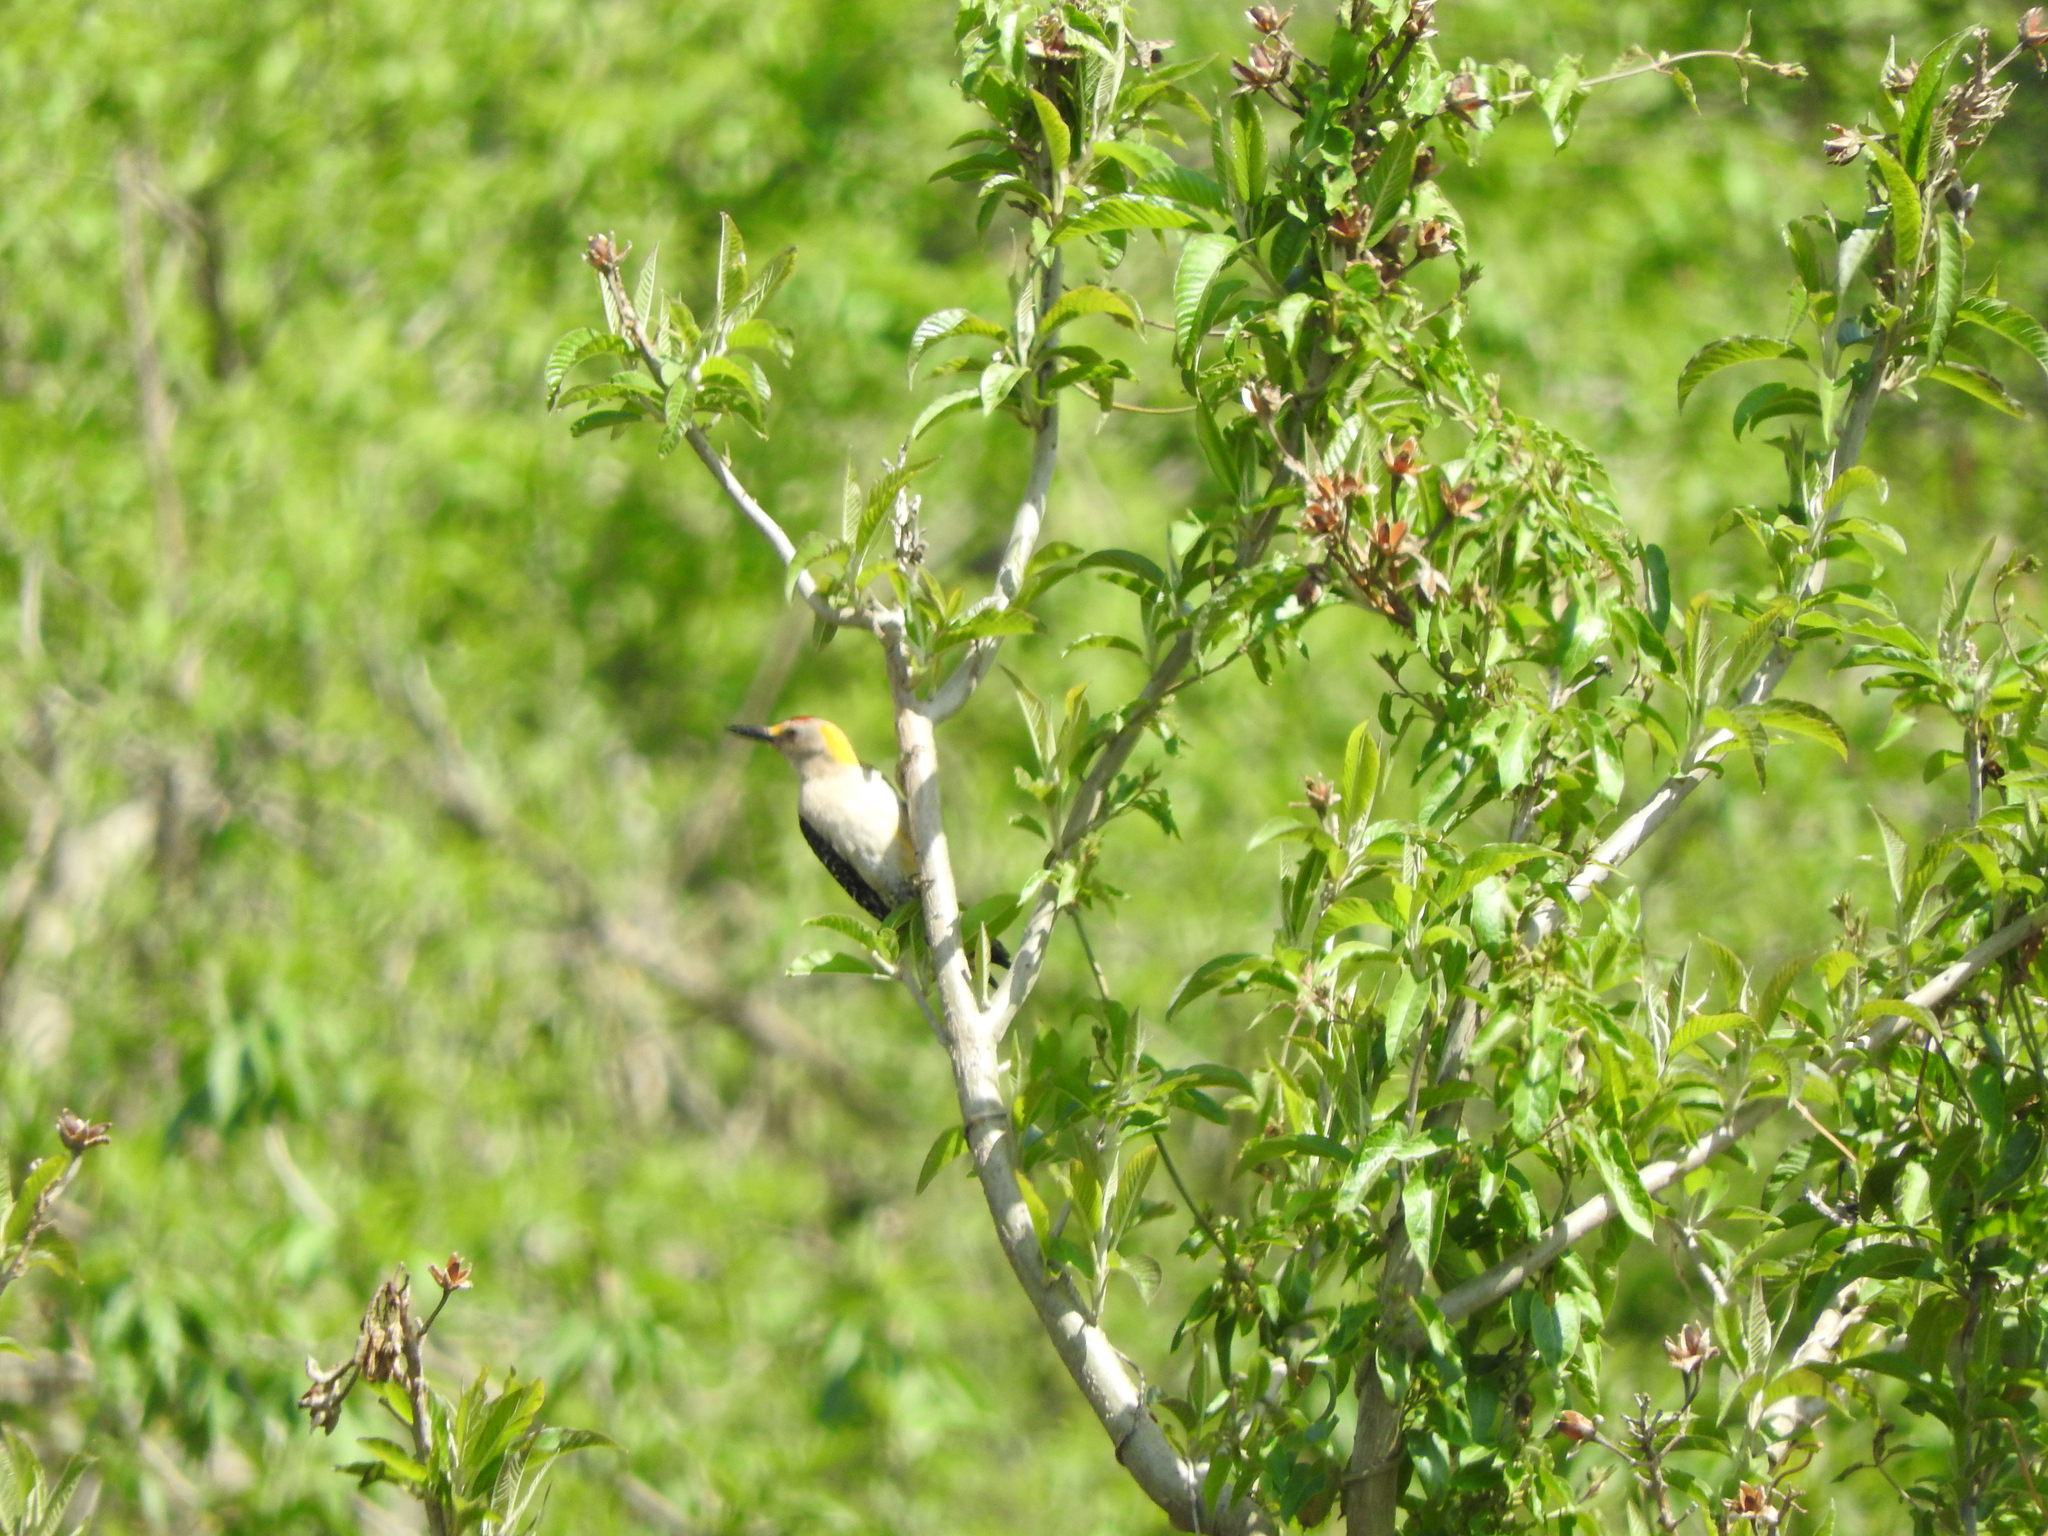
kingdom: Animalia
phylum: Chordata
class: Aves
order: Piciformes
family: Picidae
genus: Melanerpes
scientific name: Melanerpes aurifrons
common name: Golden-fronted woodpecker
